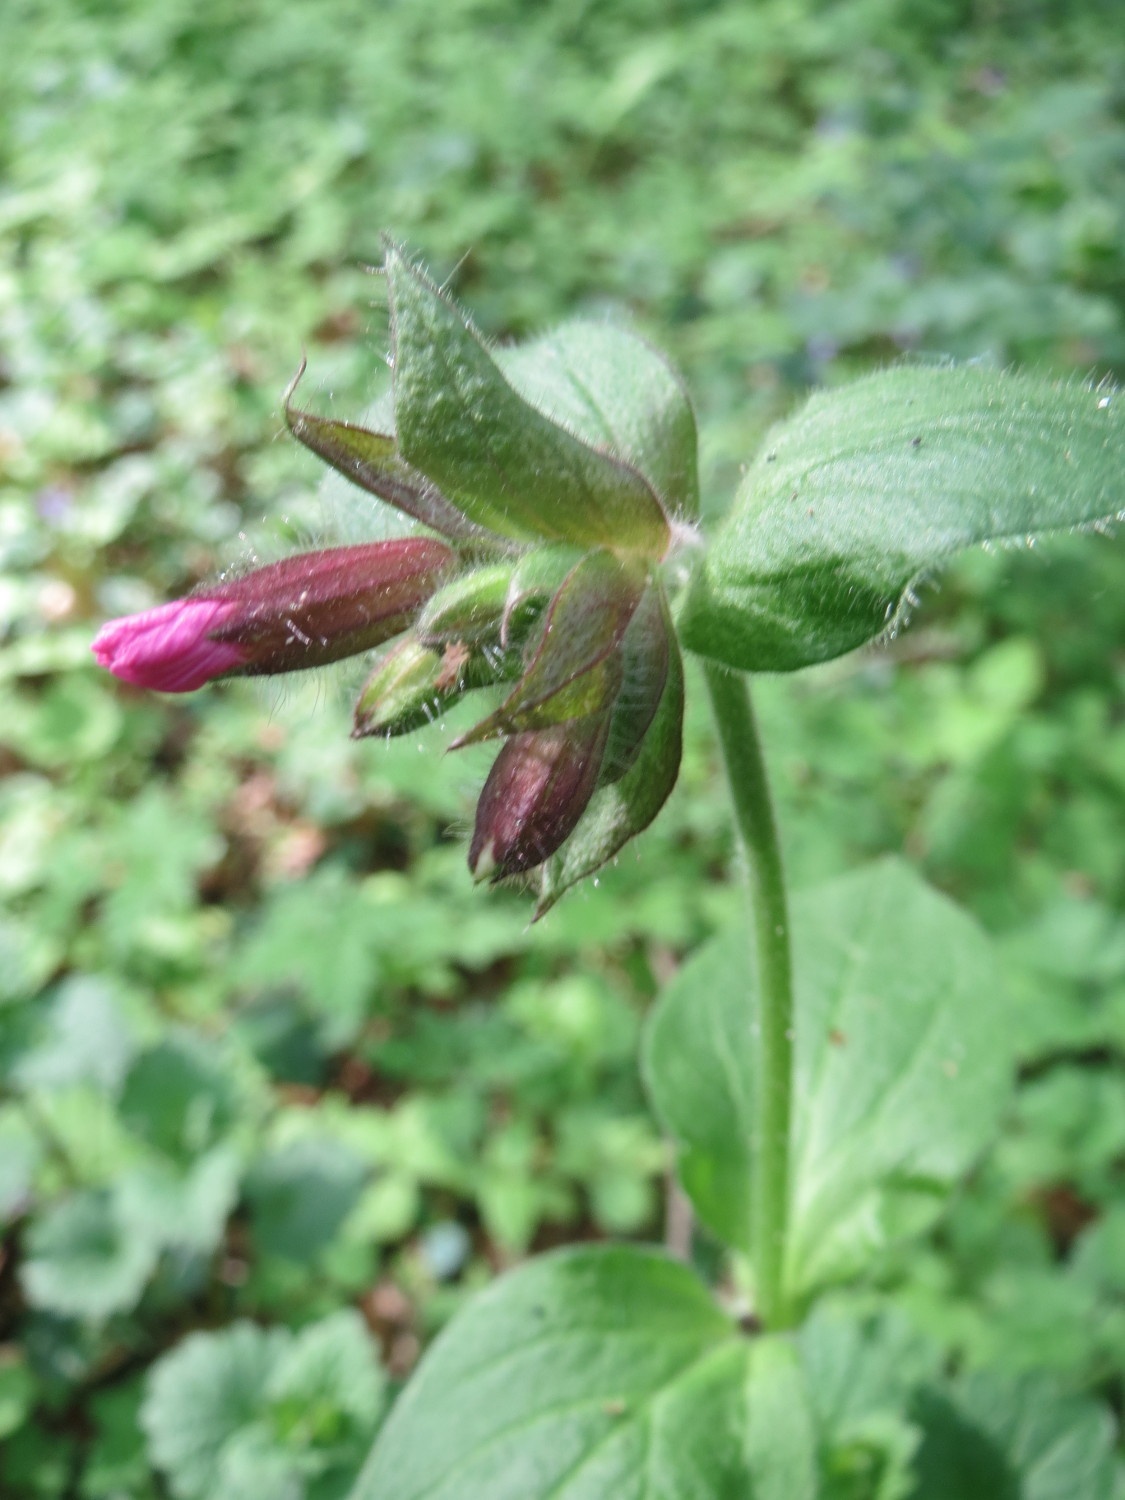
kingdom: Plantae
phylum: Tracheophyta
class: Magnoliopsida
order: Caryophyllales
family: Caryophyllaceae
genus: Silene
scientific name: Silene dioica
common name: Red campion
